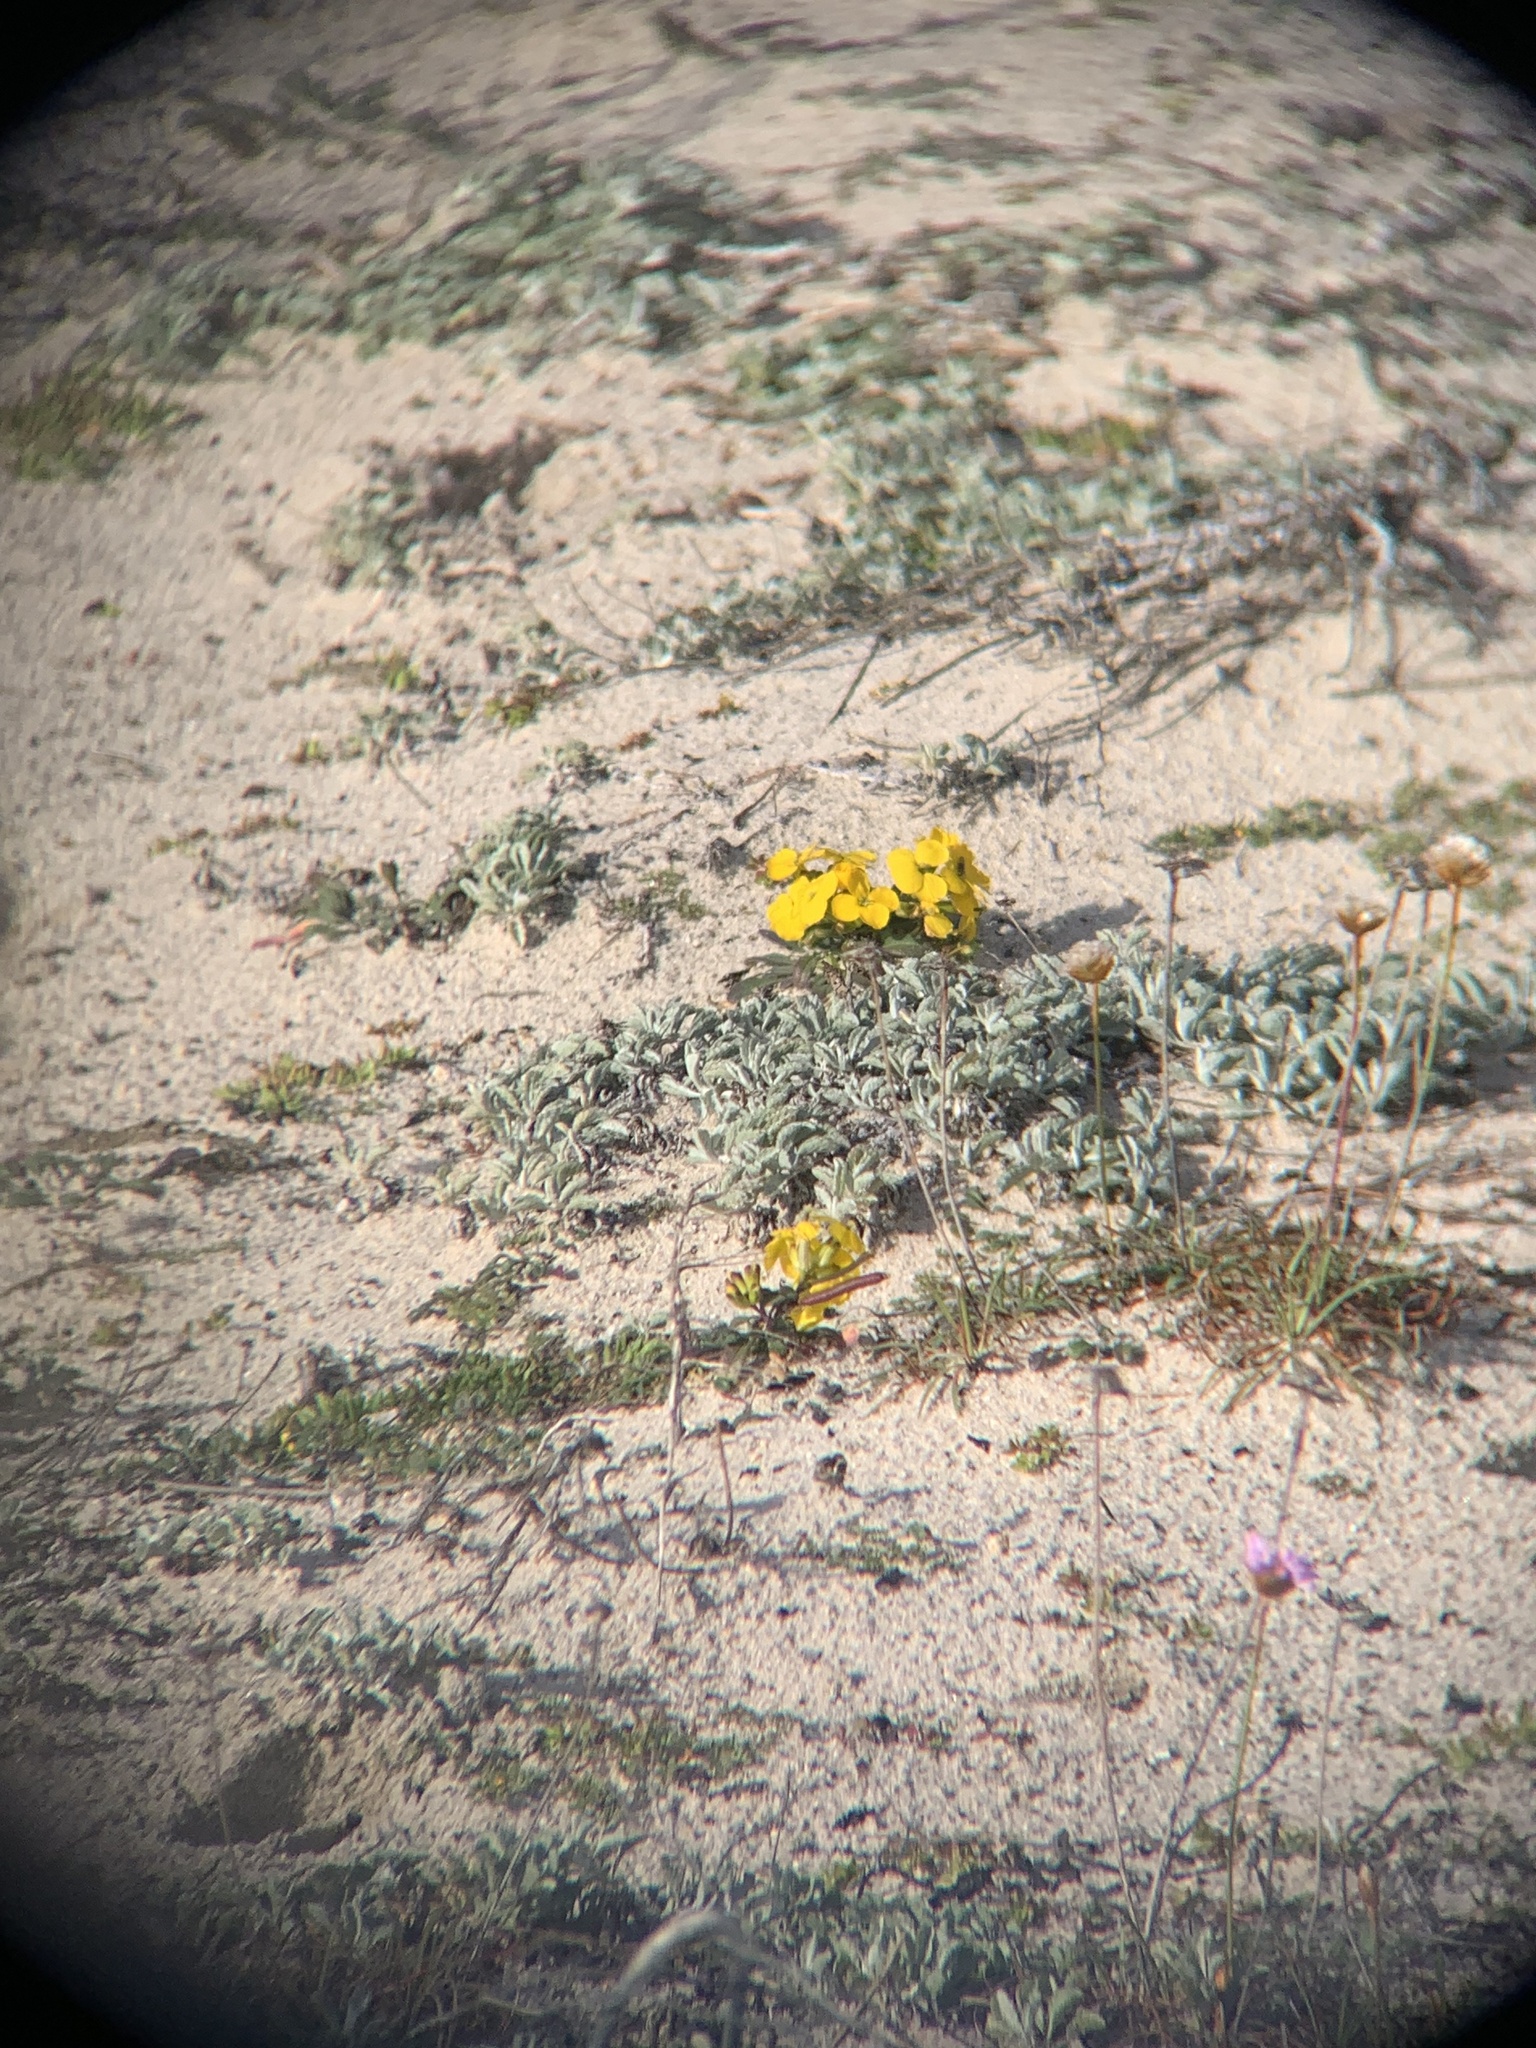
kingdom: Plantae
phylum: Tracheophyta
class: Magnoliopsida
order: Brassicales
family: Brassicaceae
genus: Erysimum
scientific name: Erysimum menziesii
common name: Menzies's wallflower
